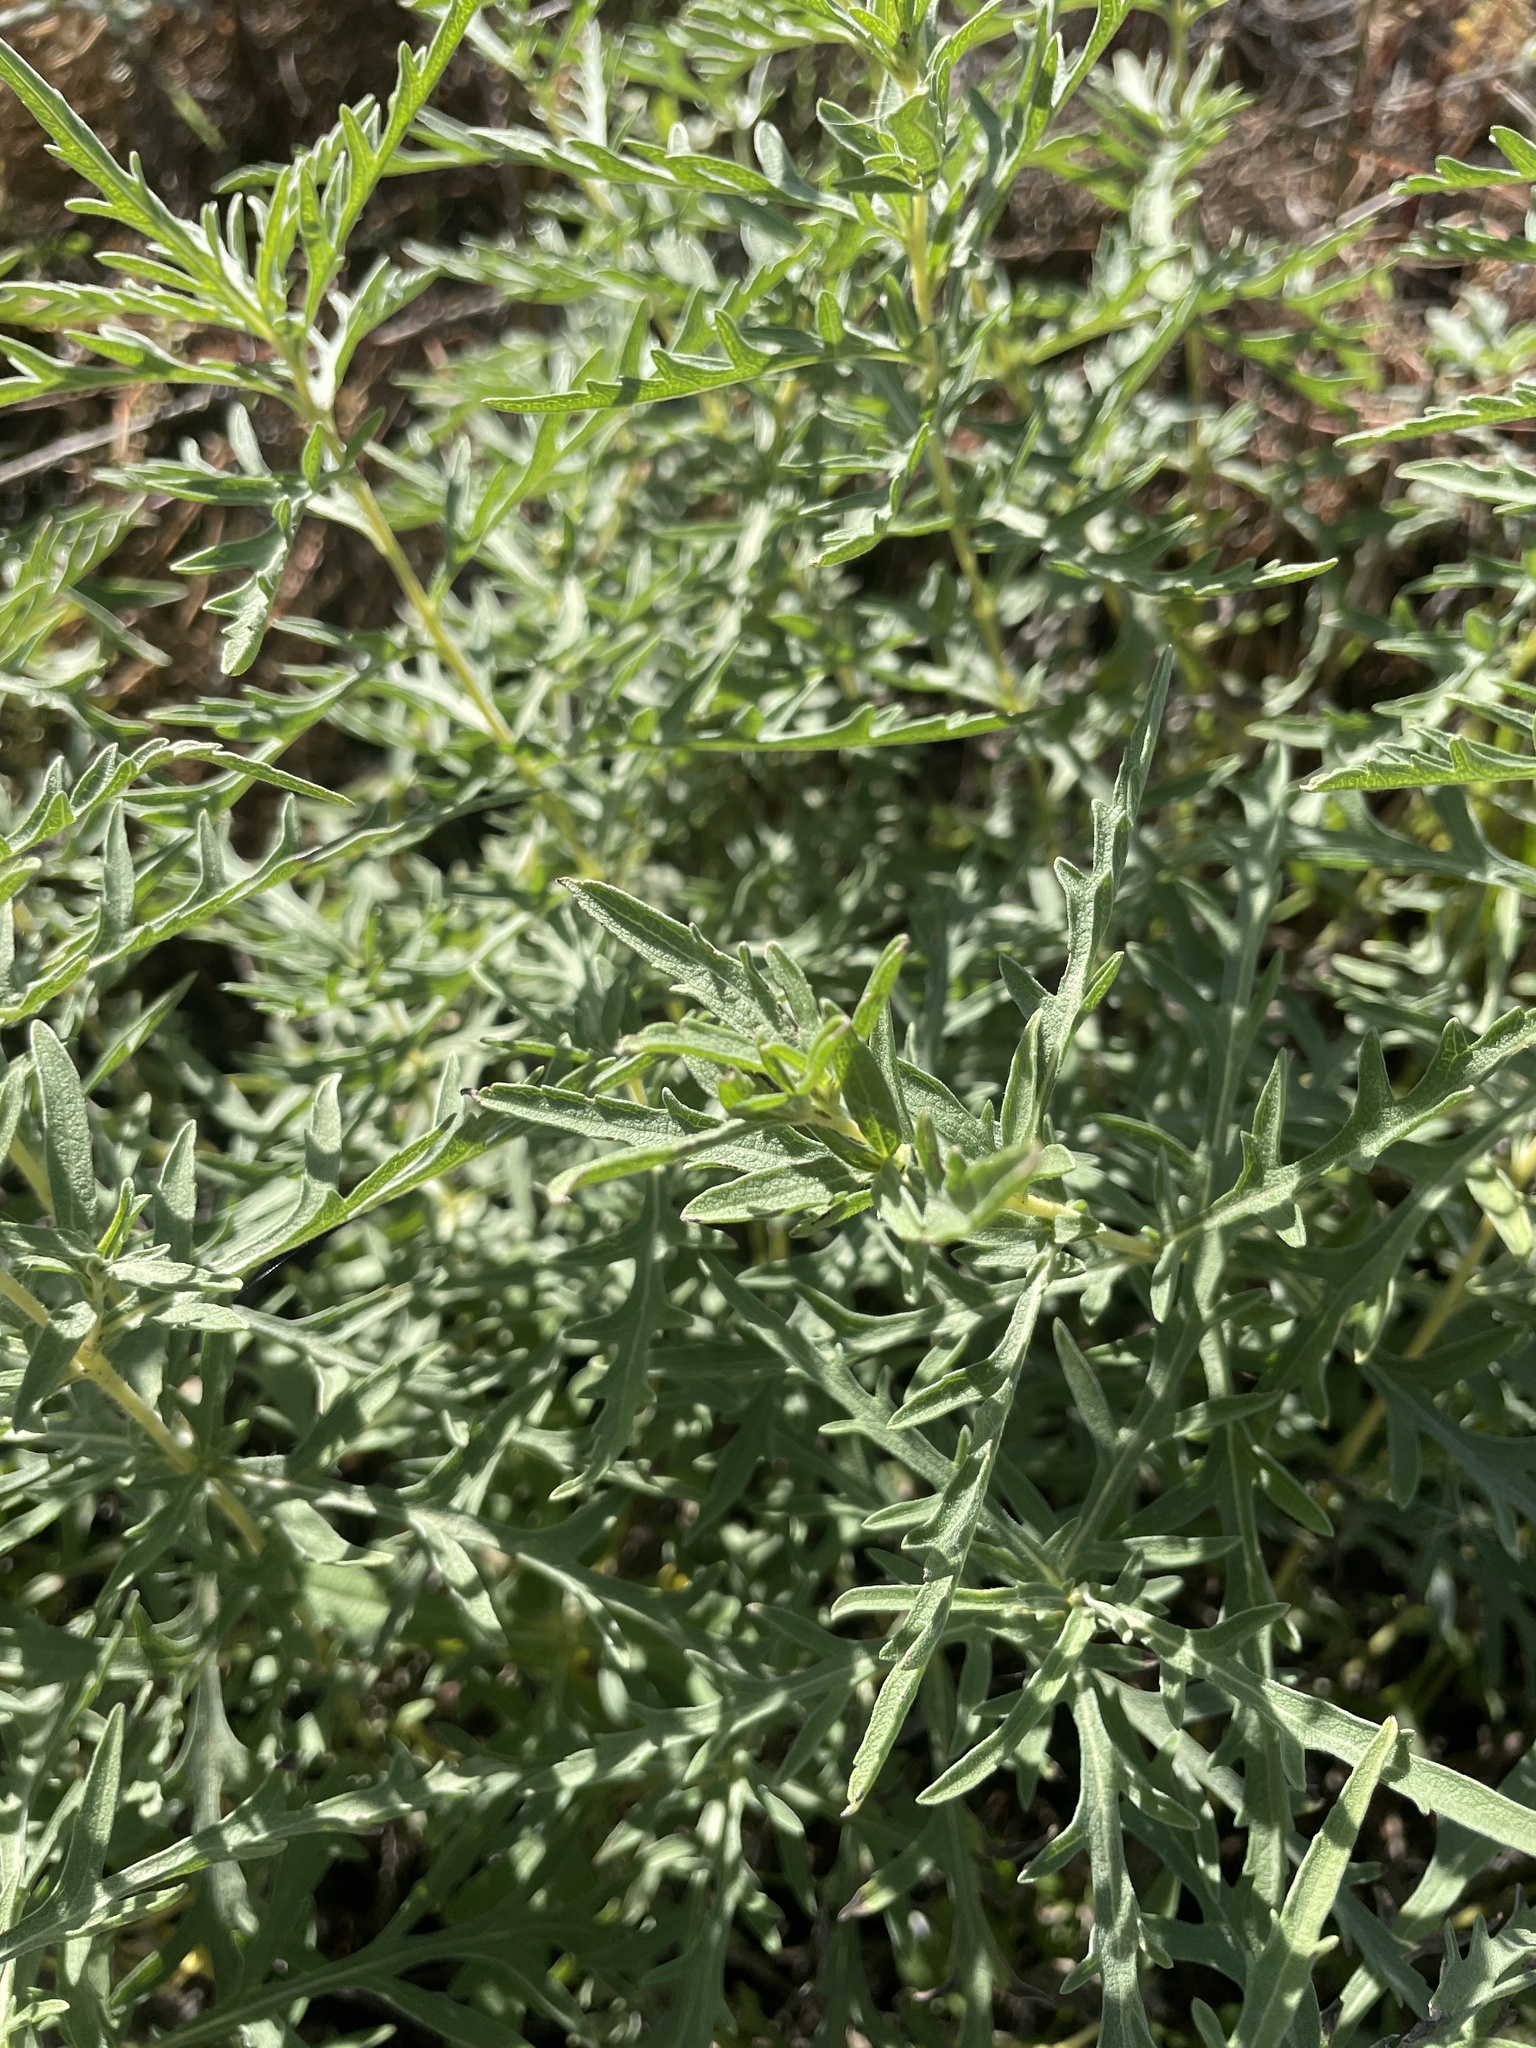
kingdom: Plantae
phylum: Tracheophyta
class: Magnoliopsida
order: Asterales
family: Asteraceae
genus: Ambrosia
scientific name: Ambrosia psilostachya
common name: Perennial ragweed
